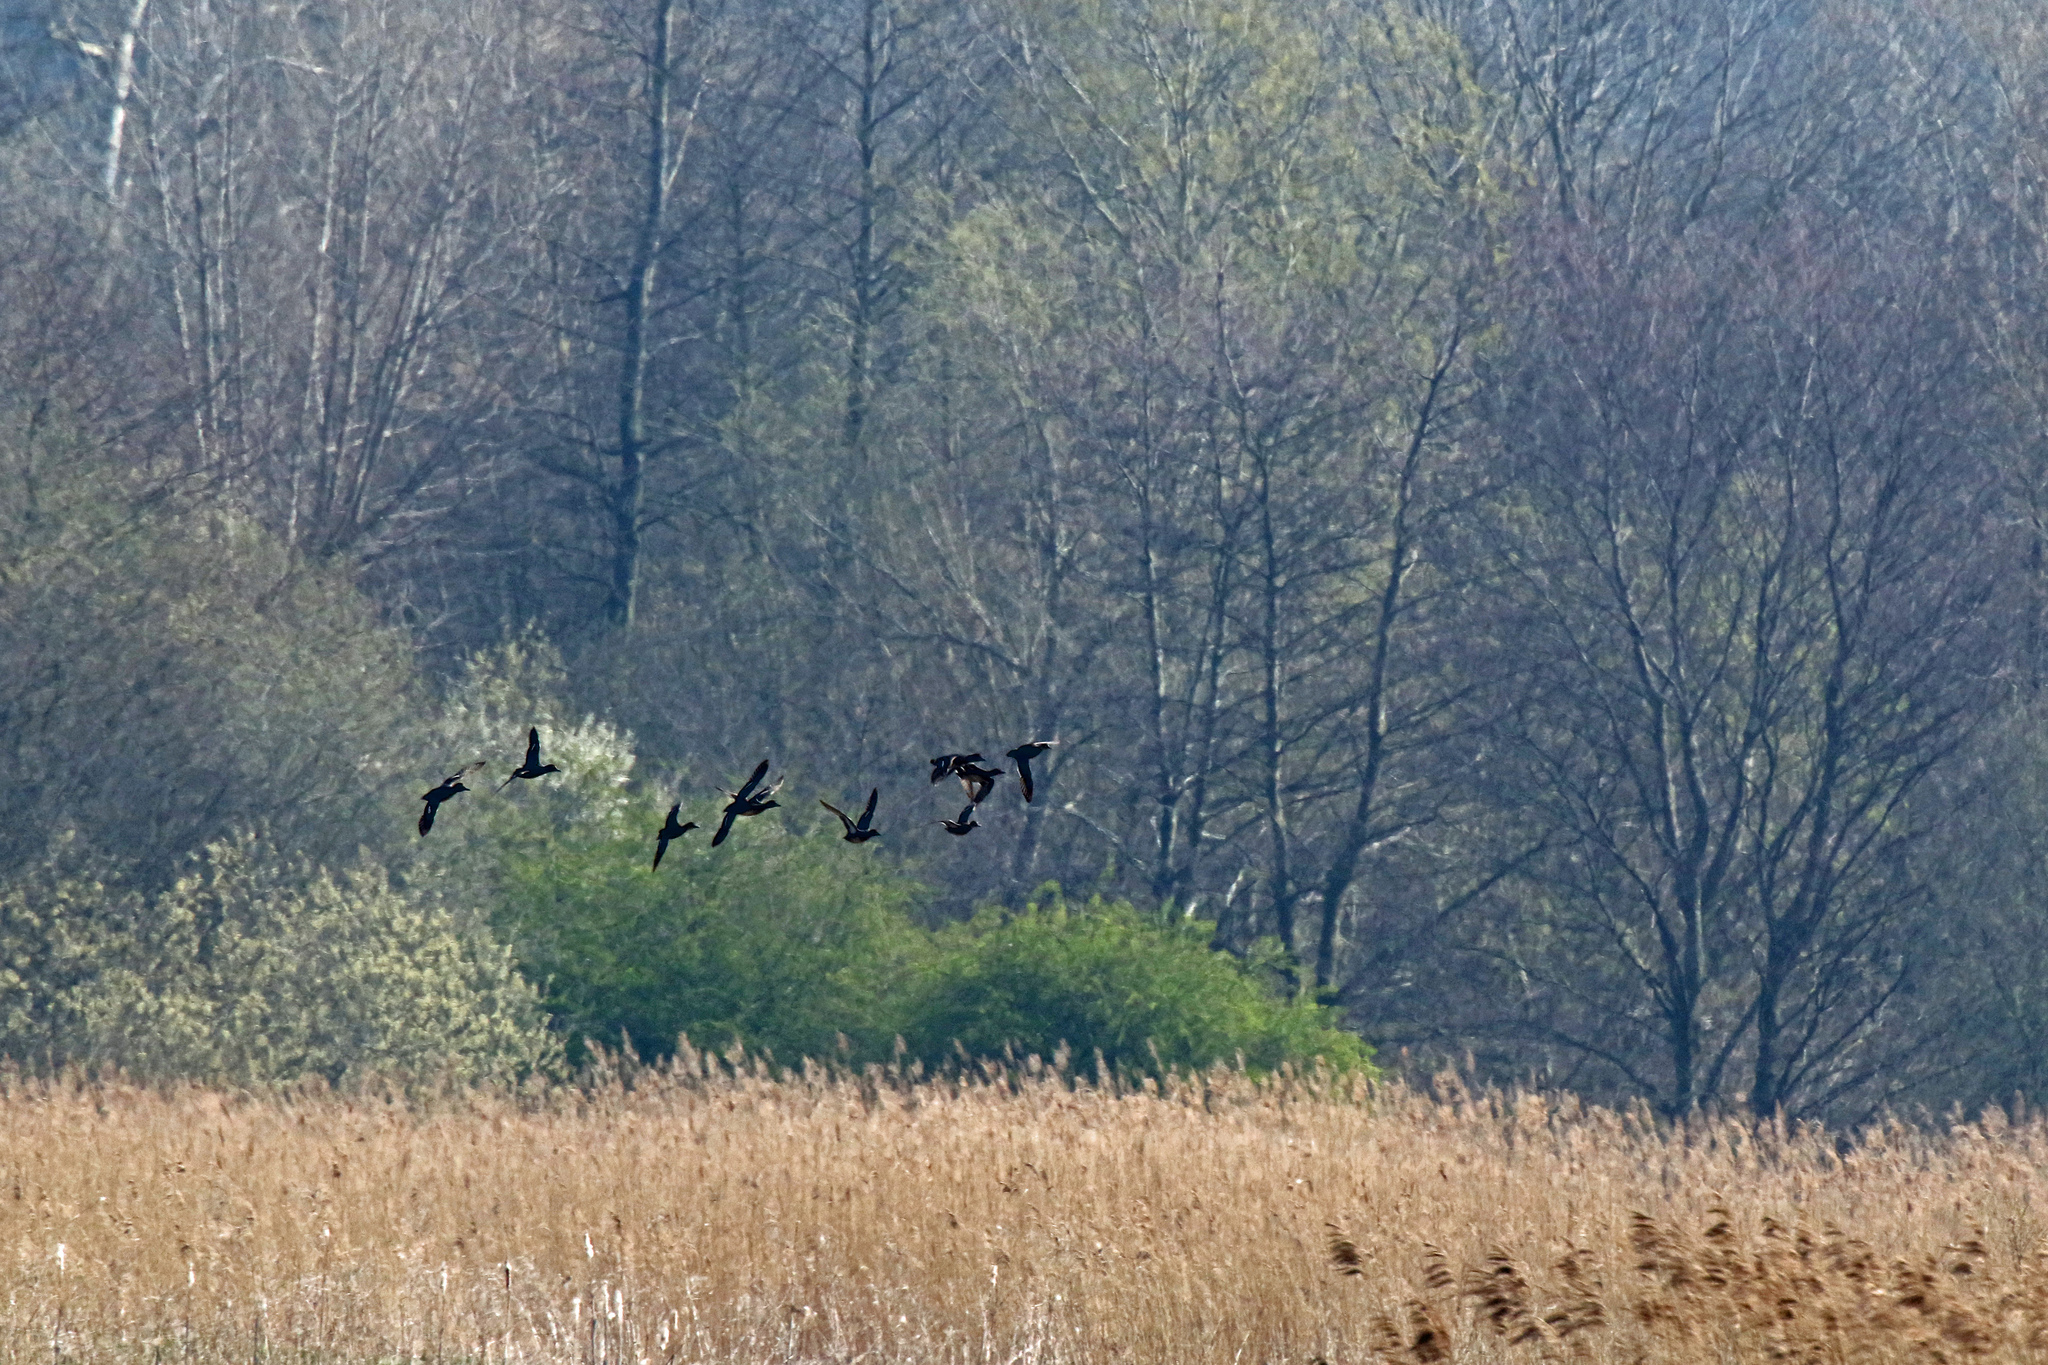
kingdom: Animalia
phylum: Chordata
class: Aves
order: Anseriformes
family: Anatidae
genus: Anas
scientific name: Anas crecca
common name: Eurasian teal
